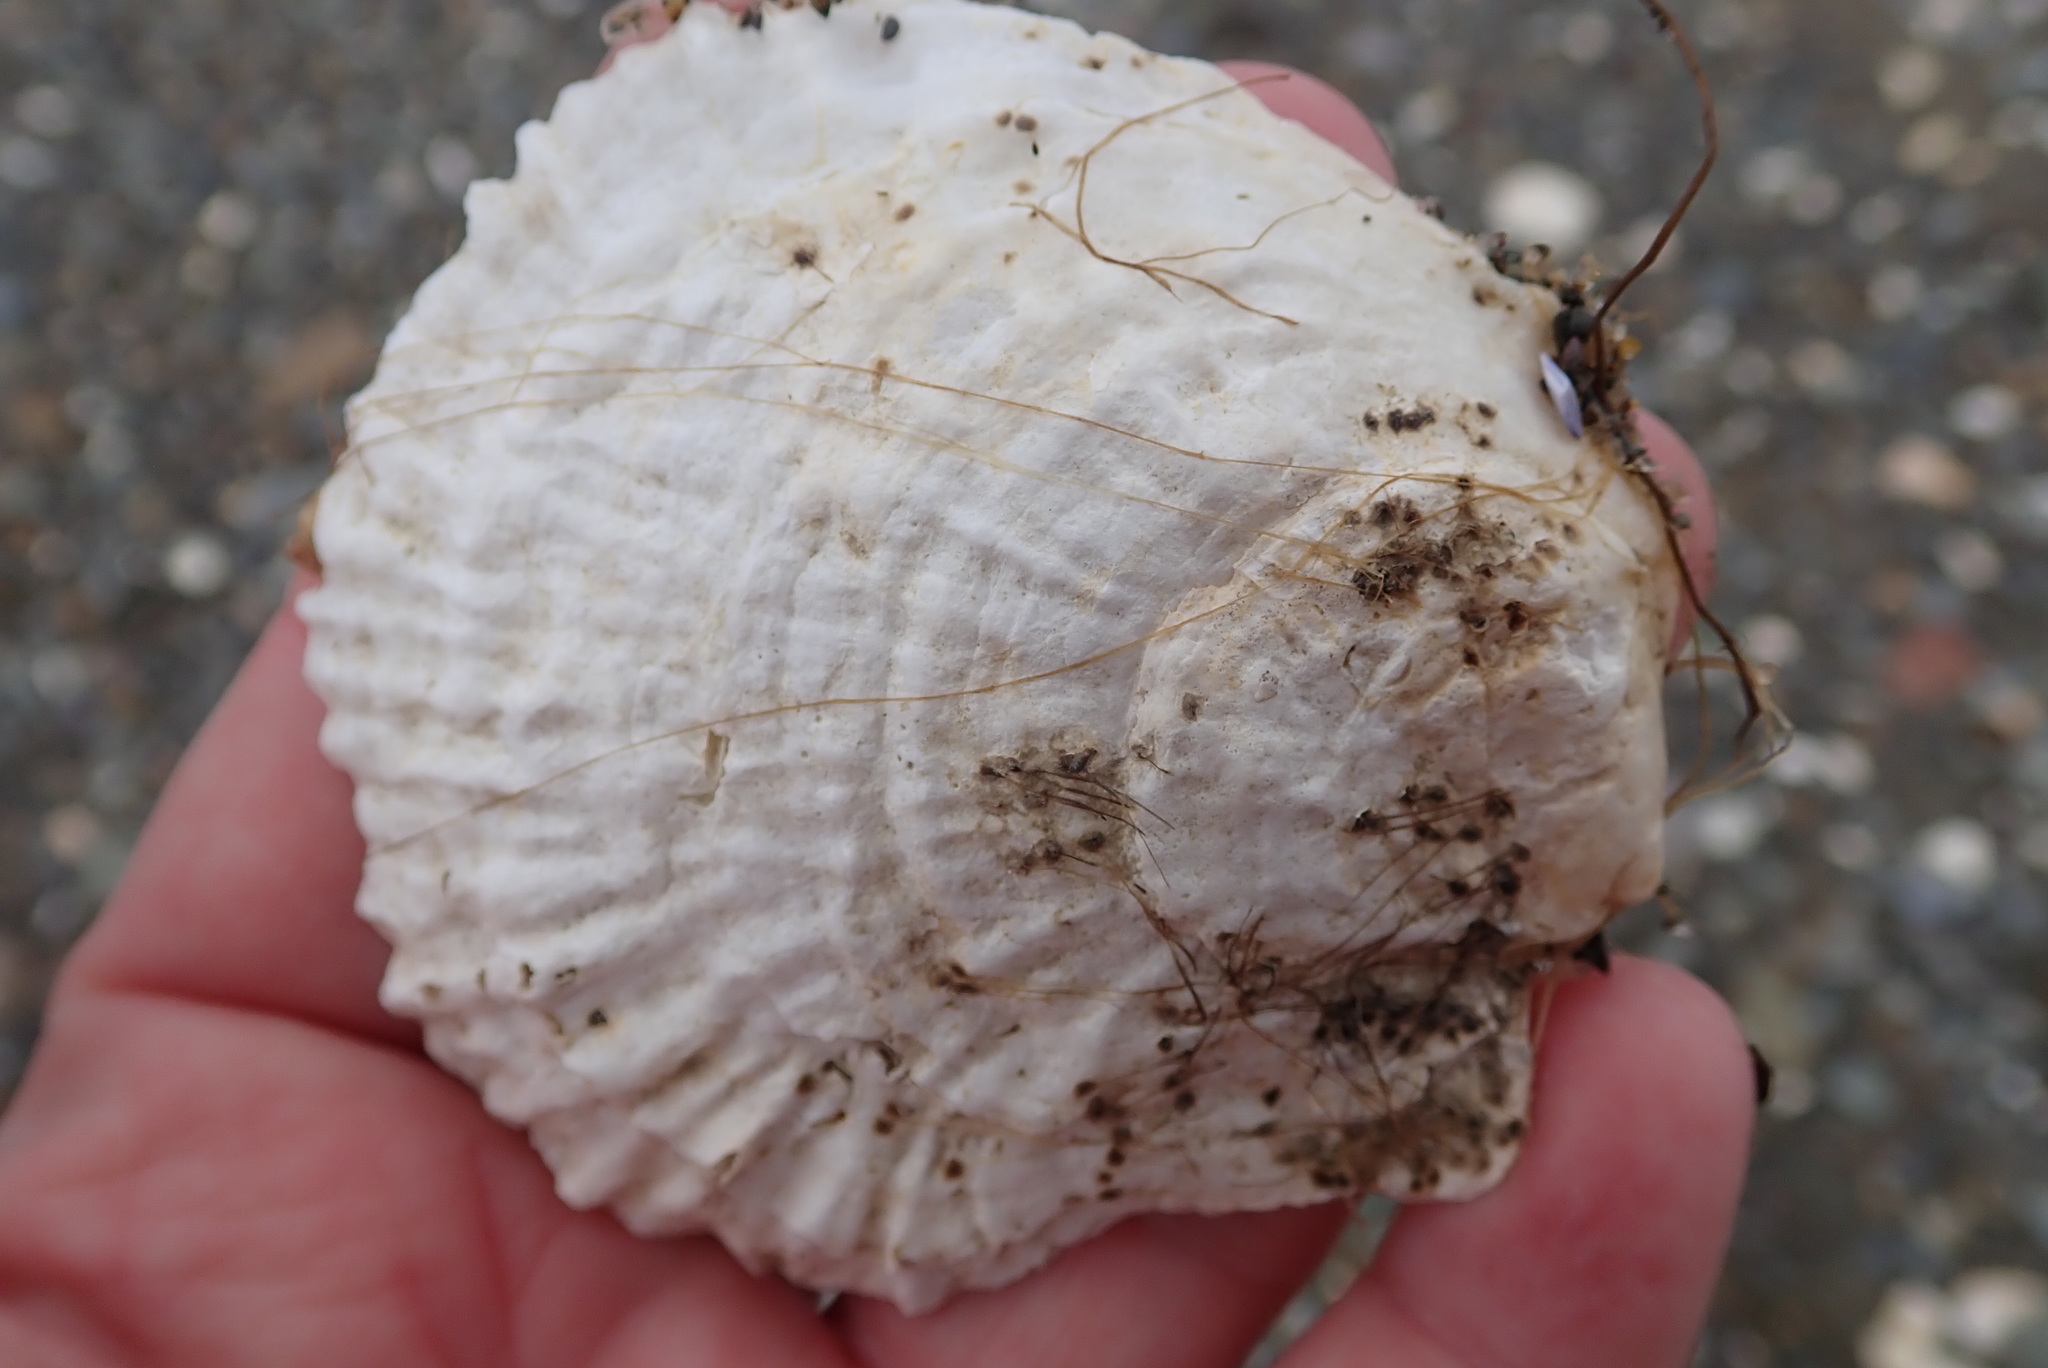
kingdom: Animalia
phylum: Mollusca
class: Bivalvia
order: Ostreida
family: Ostreidae
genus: Ostrea
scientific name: Ostrea edulis
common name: Flat oyster
